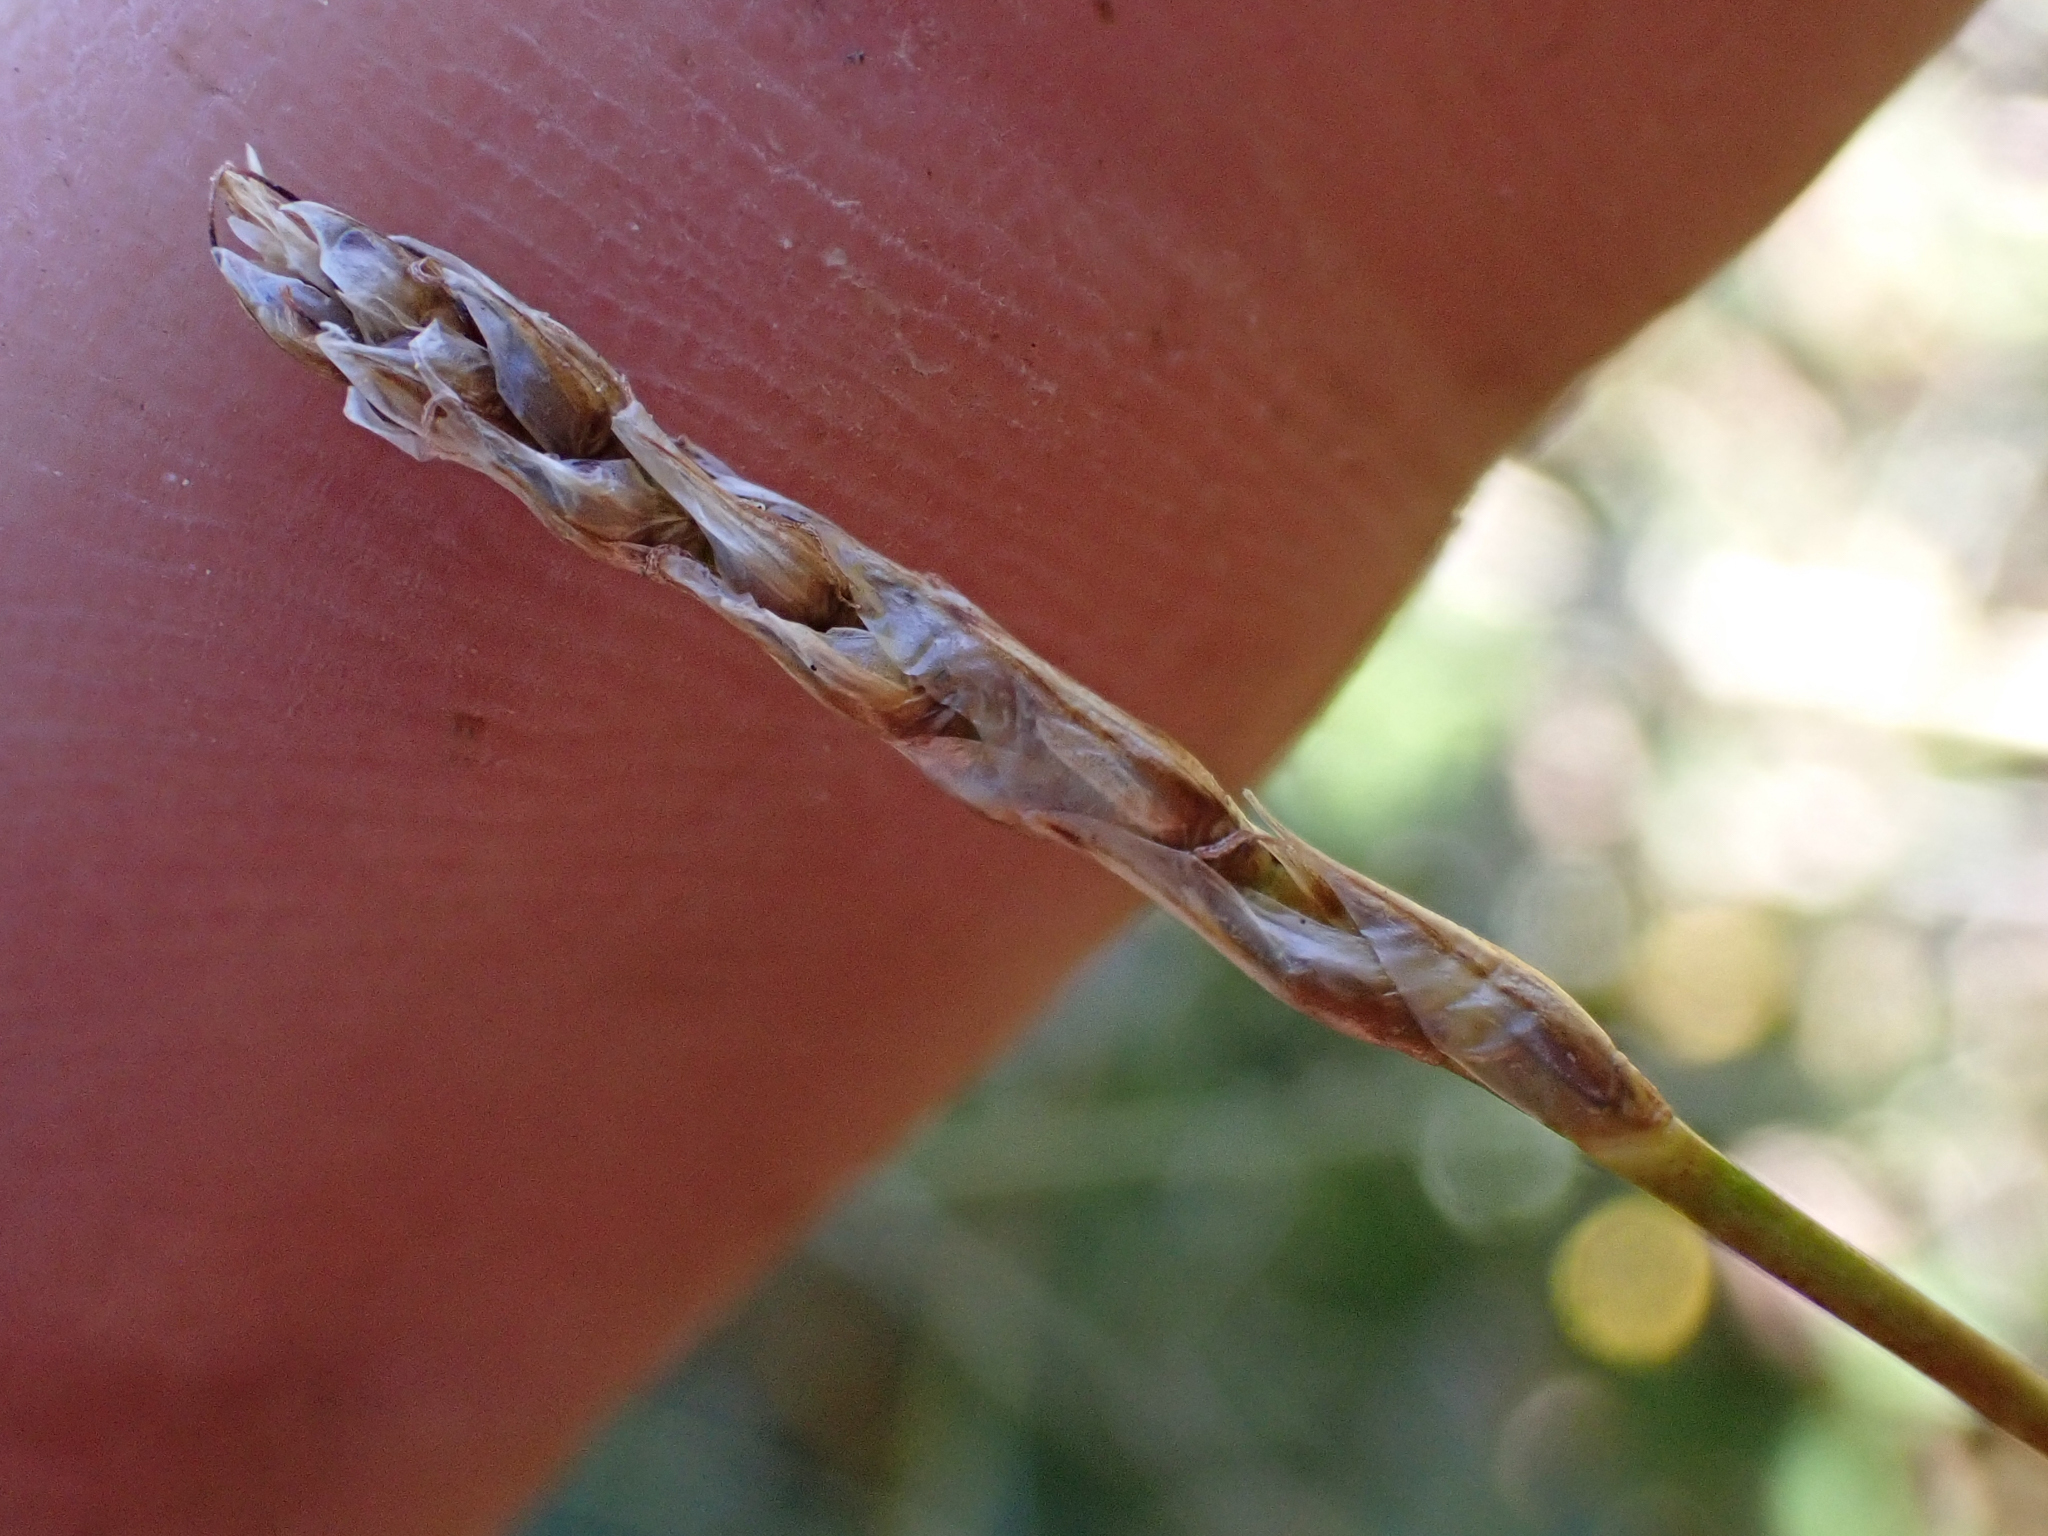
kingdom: Plantae
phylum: Tracheophyta
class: Liliopsida
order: Poales
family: Cyperaceae
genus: Carex
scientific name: Carex myosuroides
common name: Bellard's bog sedge
